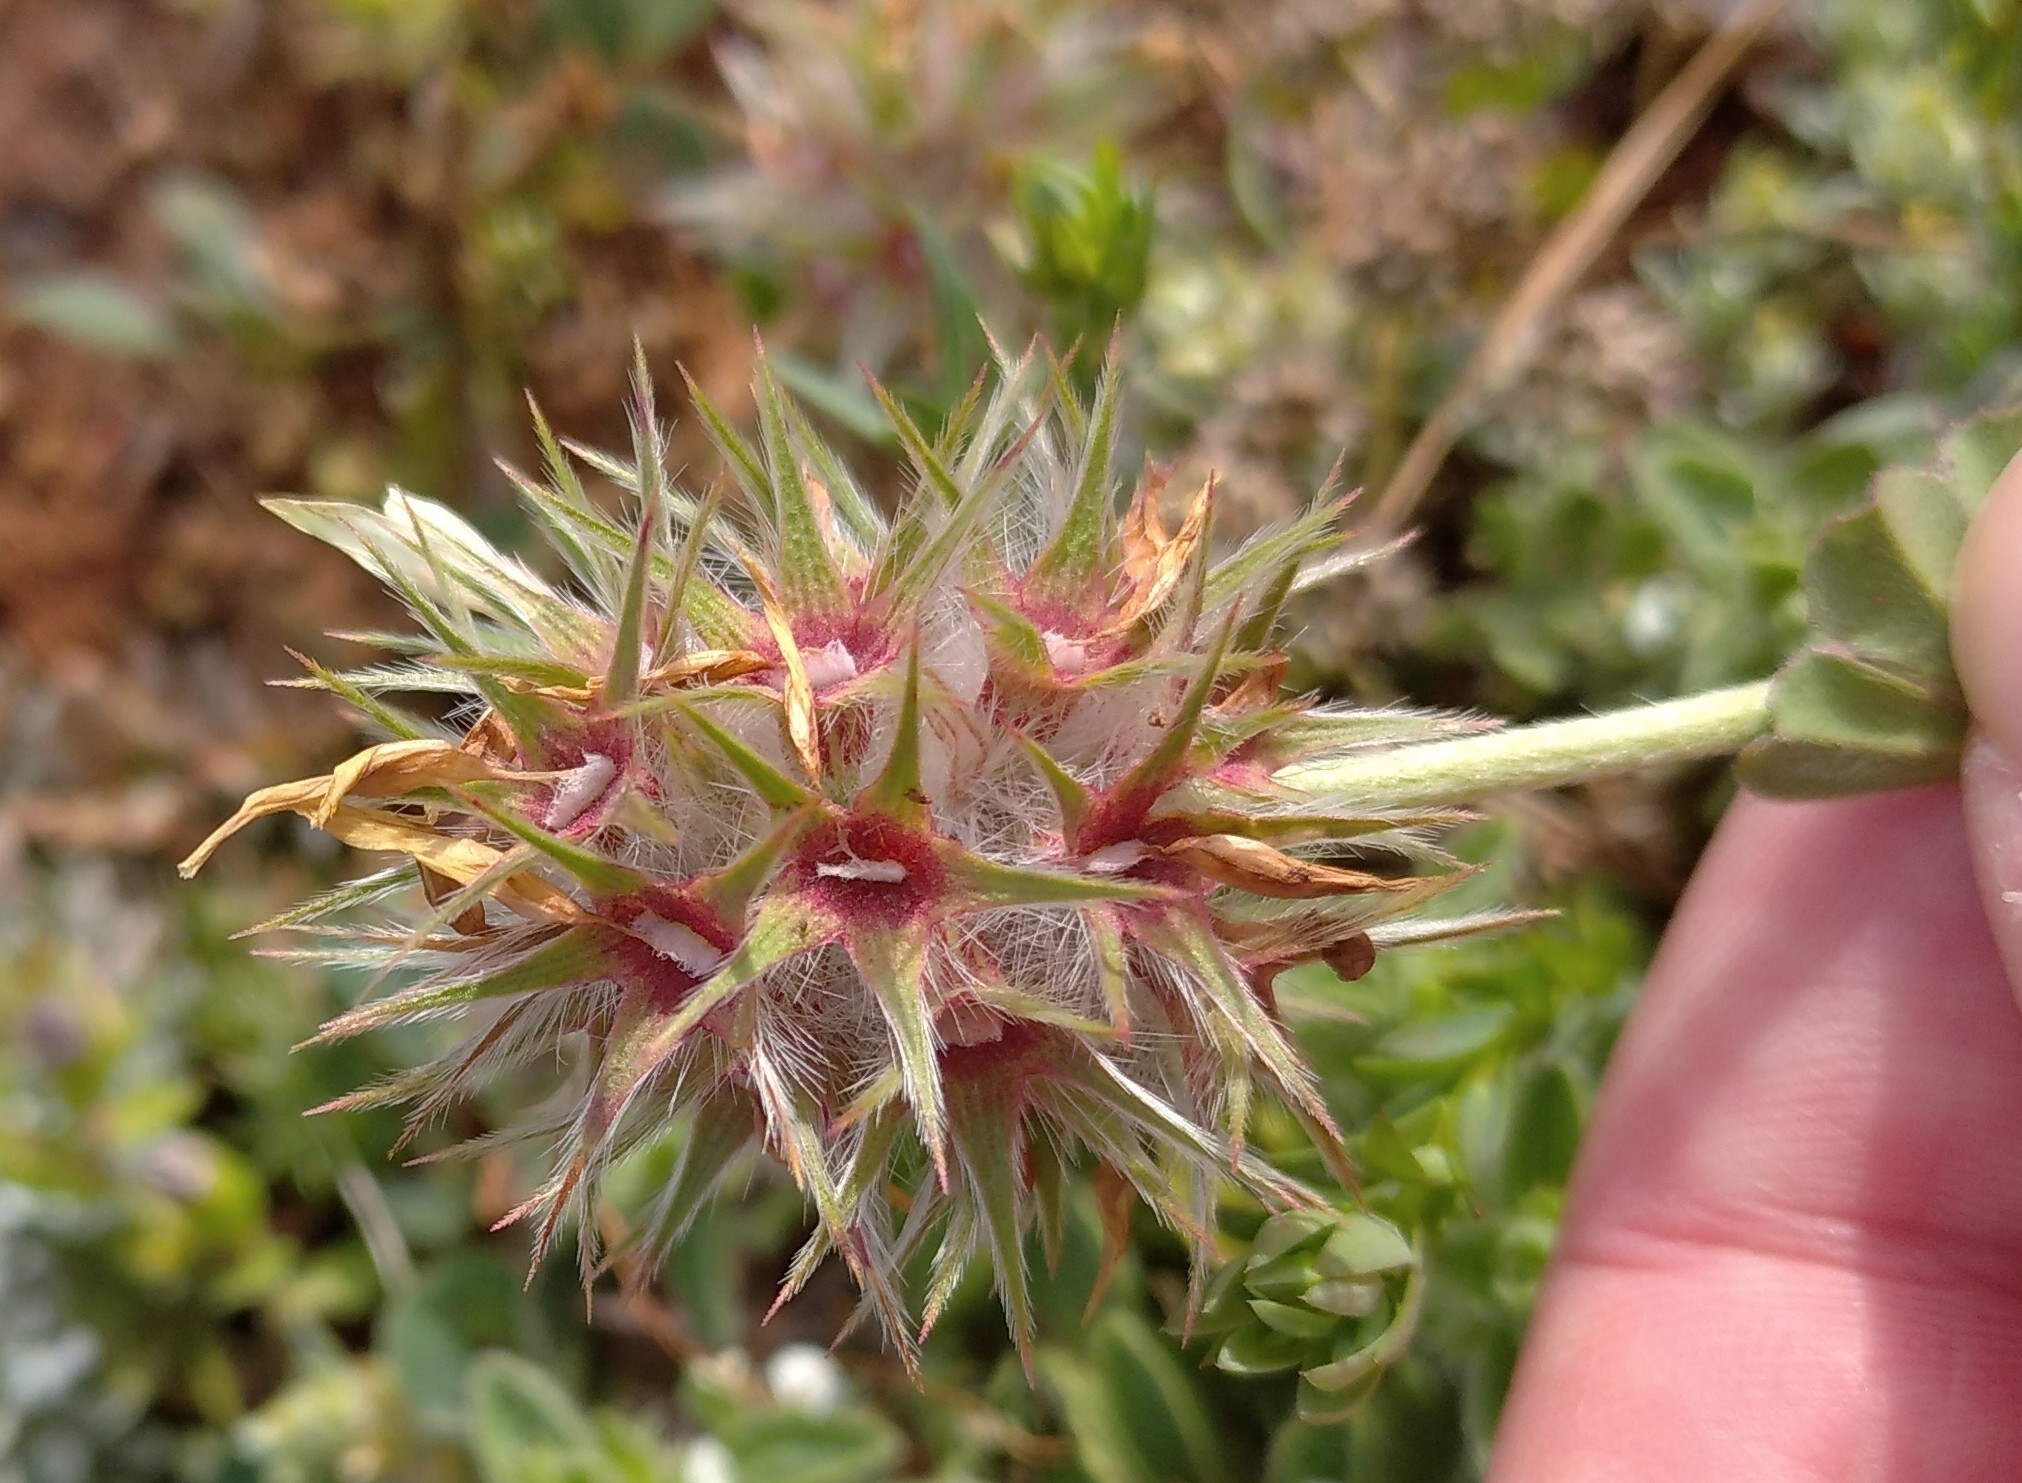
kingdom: Plantae
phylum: Tracheophyta
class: Magnoliopsida
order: Fabales
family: Fabaceae
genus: Trifolium
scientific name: Trifolium stellatum
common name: Starry clover
